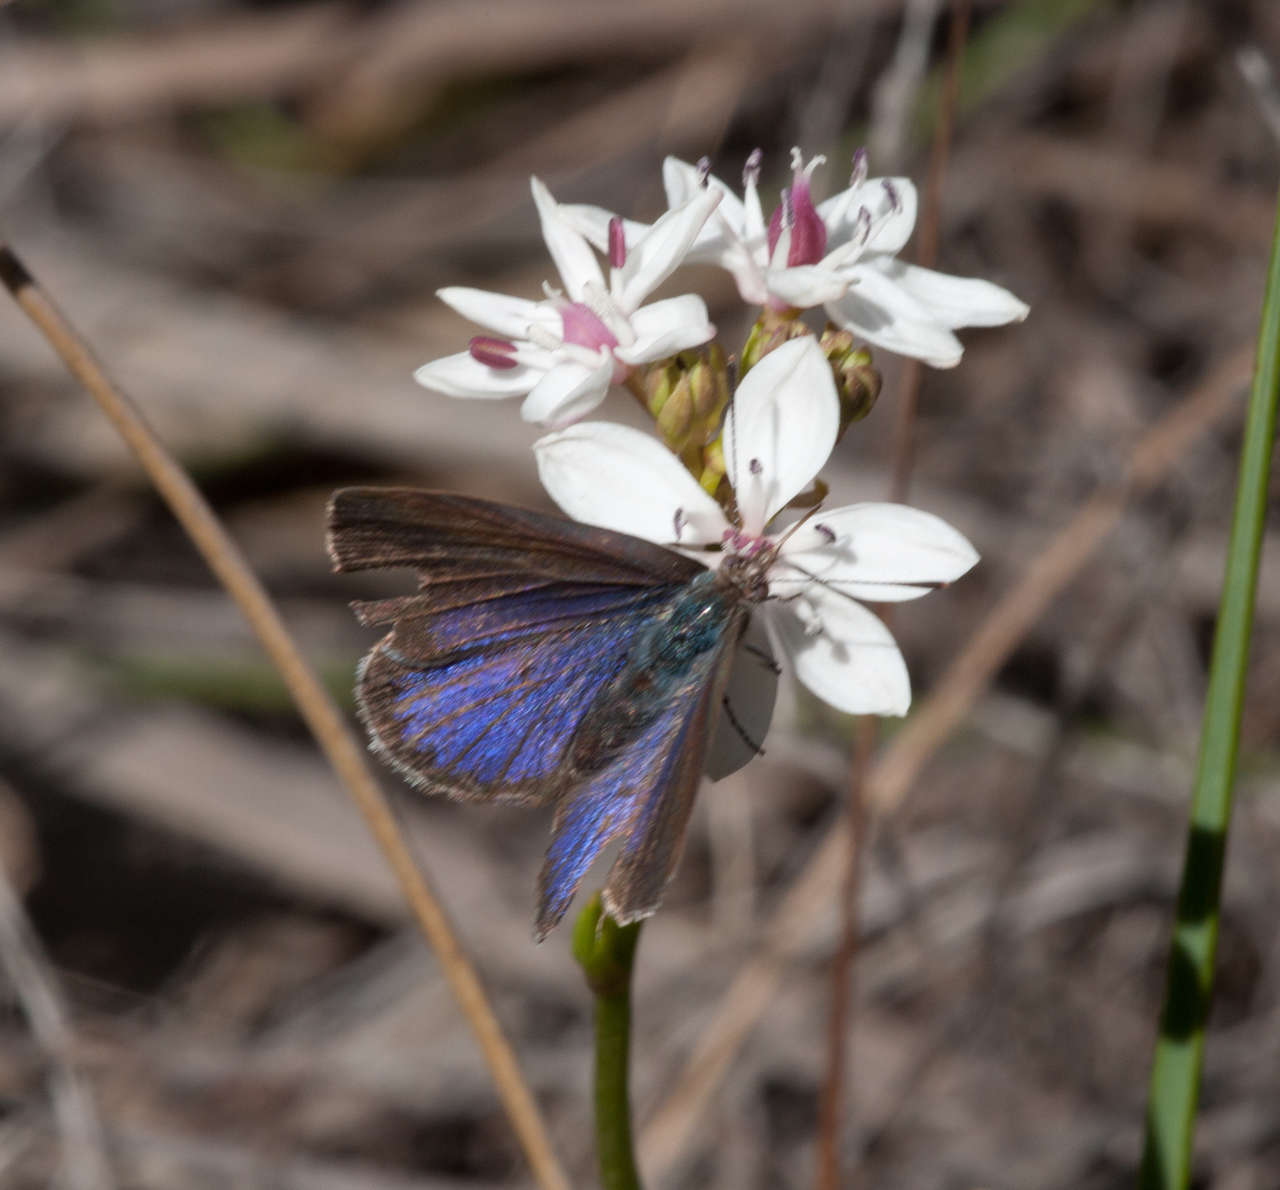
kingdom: Animalia
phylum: Arthropoda
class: Insecta
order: Lepidoptera
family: Lycaenidae
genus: Candalides
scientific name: Candalides
